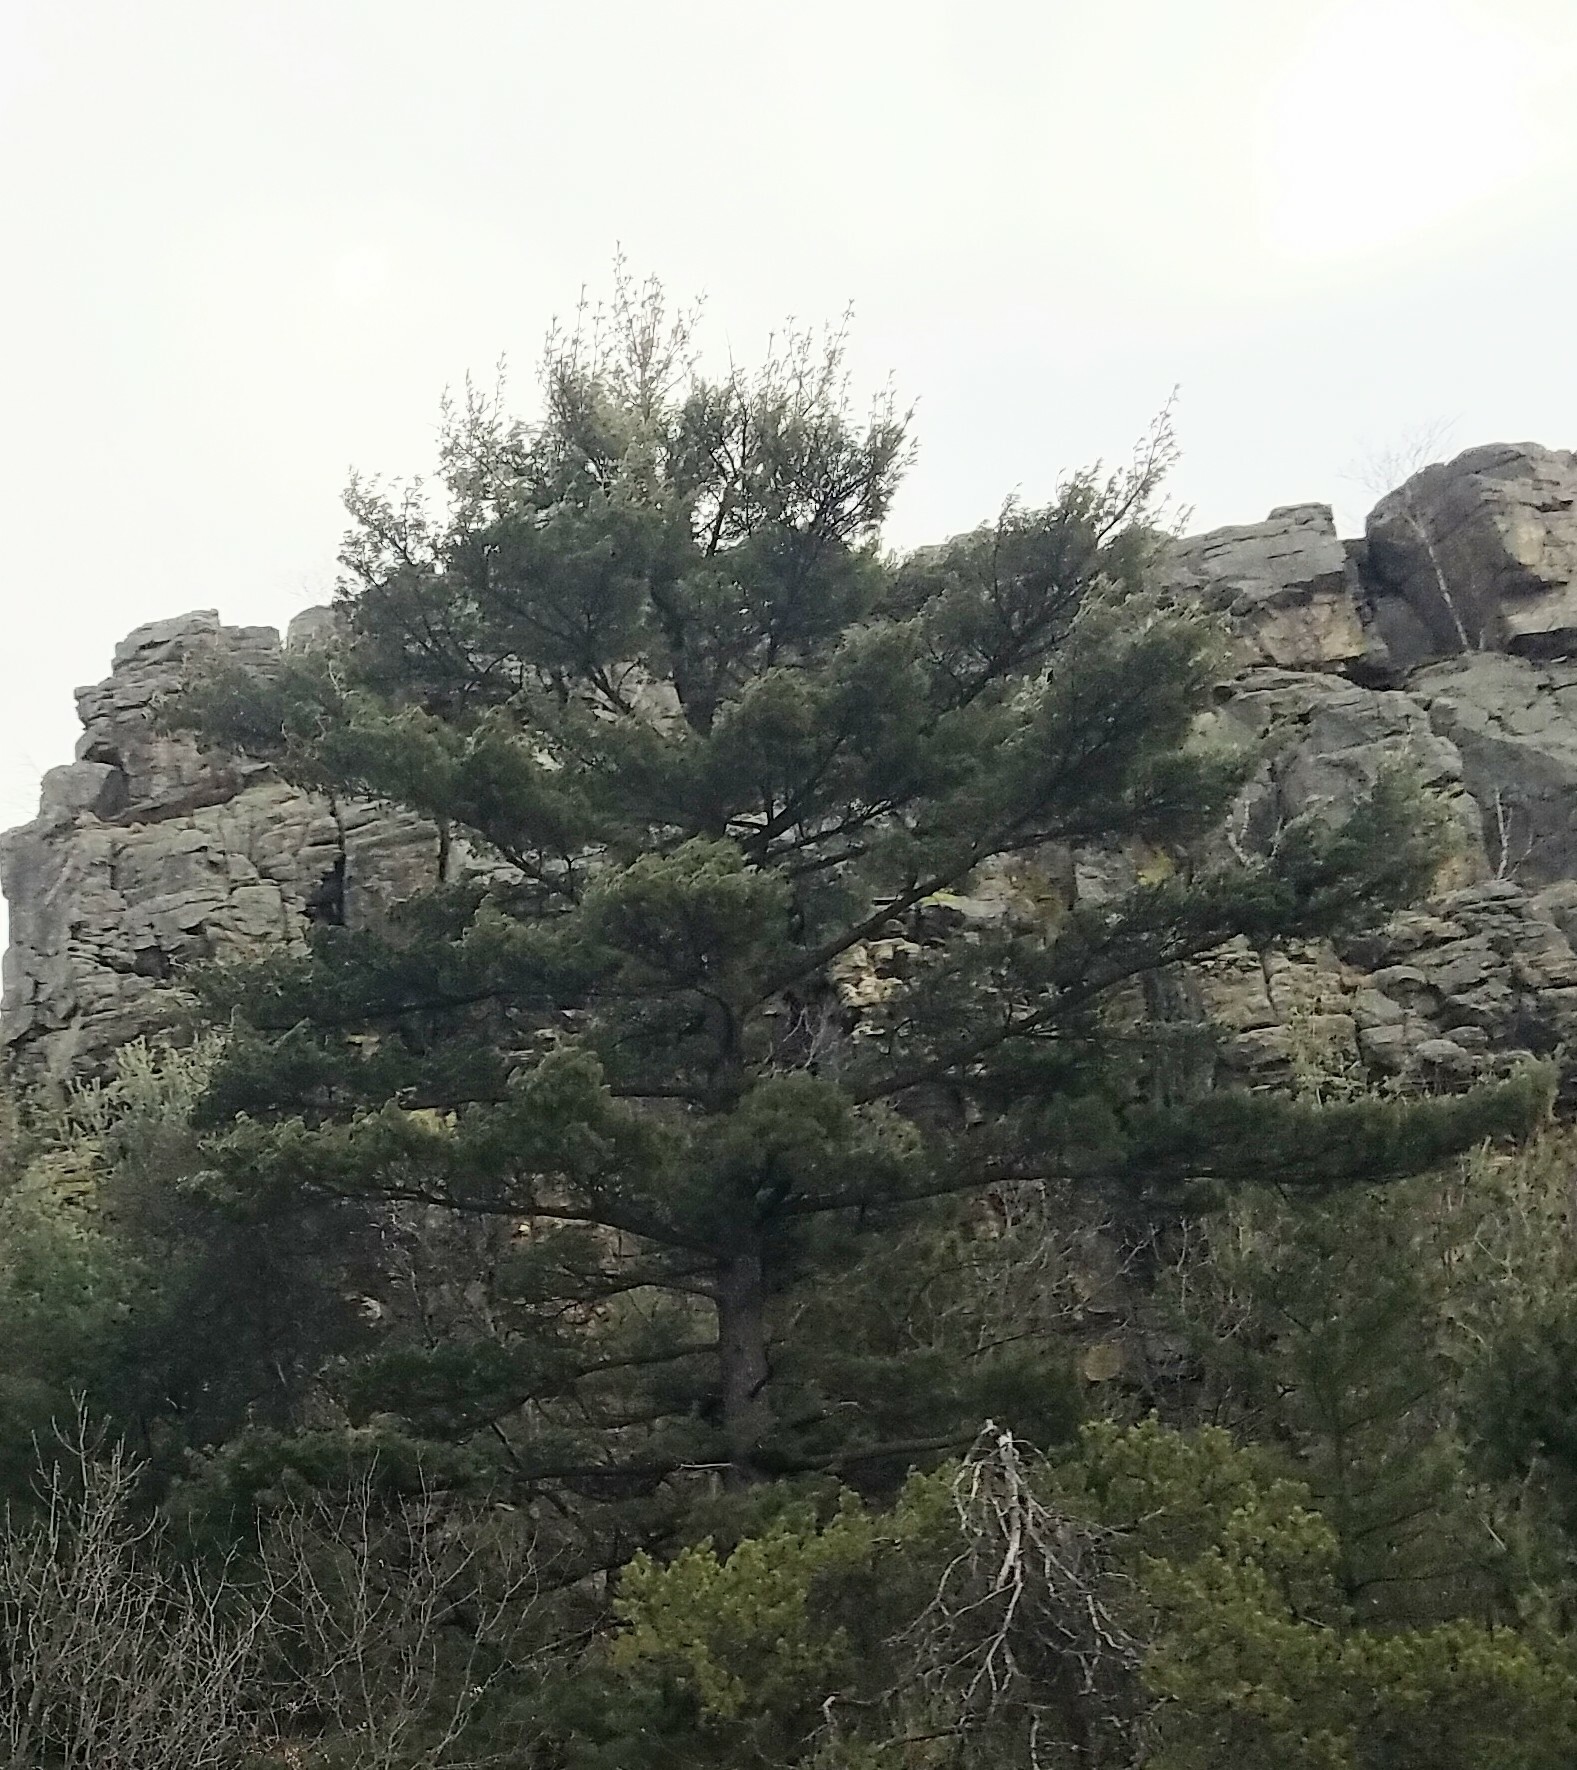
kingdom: Plantae
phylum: Tracheophyta
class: Pinopsida
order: Pinales
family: Pinaceae
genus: Pinus
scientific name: Pinus strobus
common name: Weymouth pine
